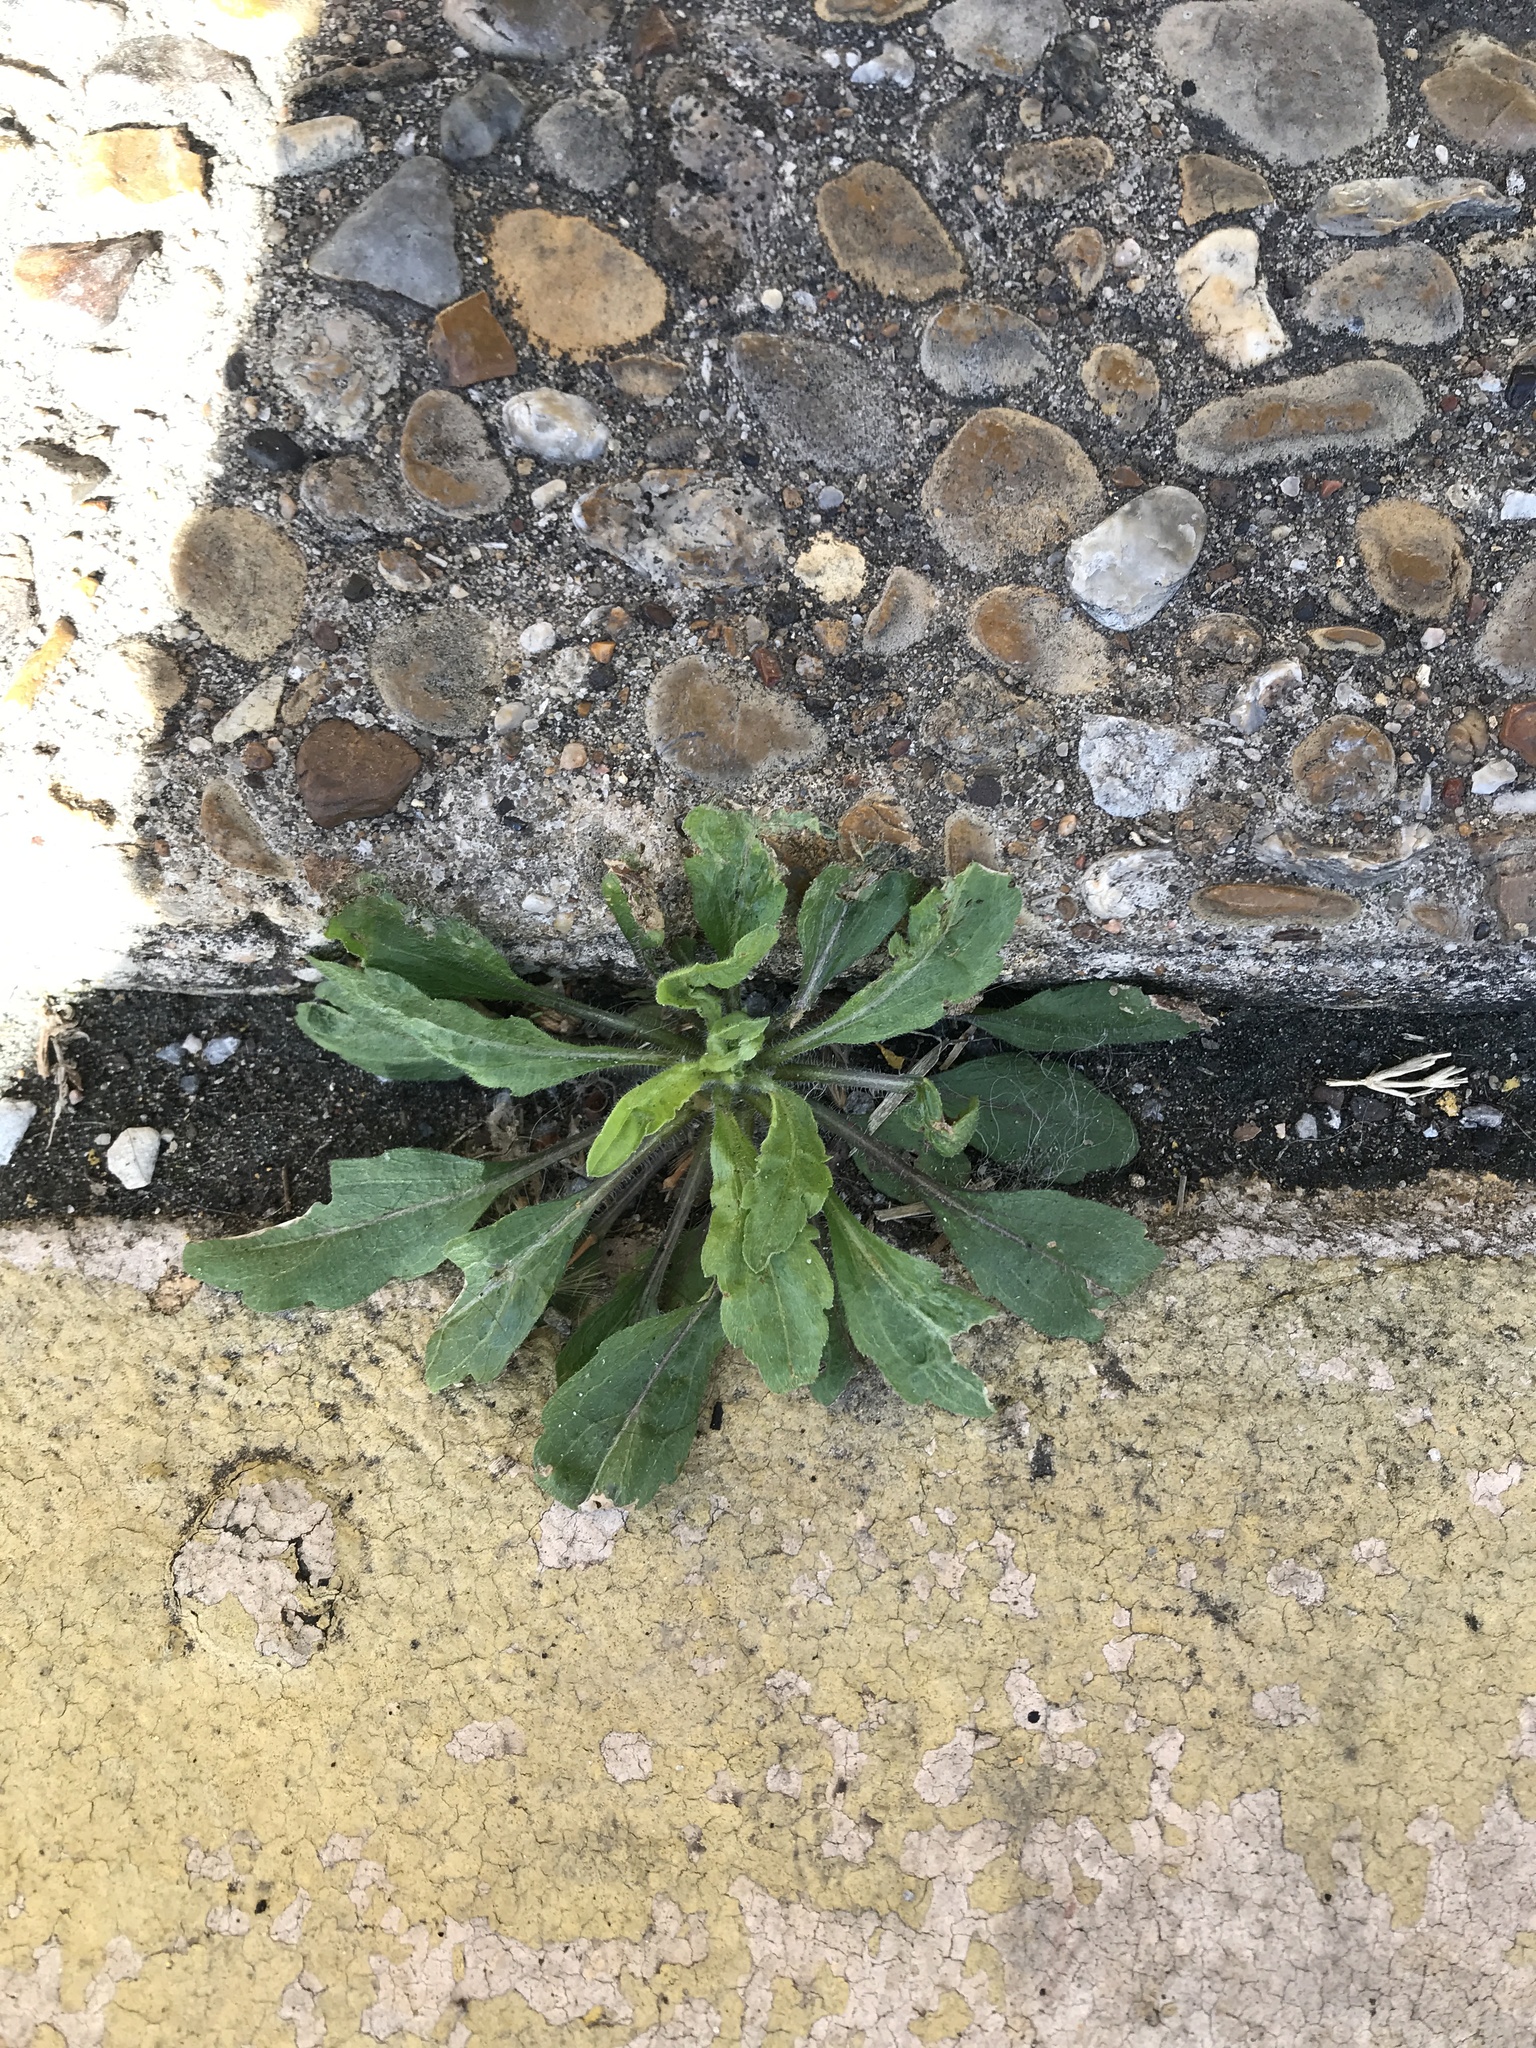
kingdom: Plantae
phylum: Tracheophyta
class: Magnoliopsida
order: Asterales
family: Asteraceae
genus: Erigeron
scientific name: Erigeron canadensis
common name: Canadian fleabane
